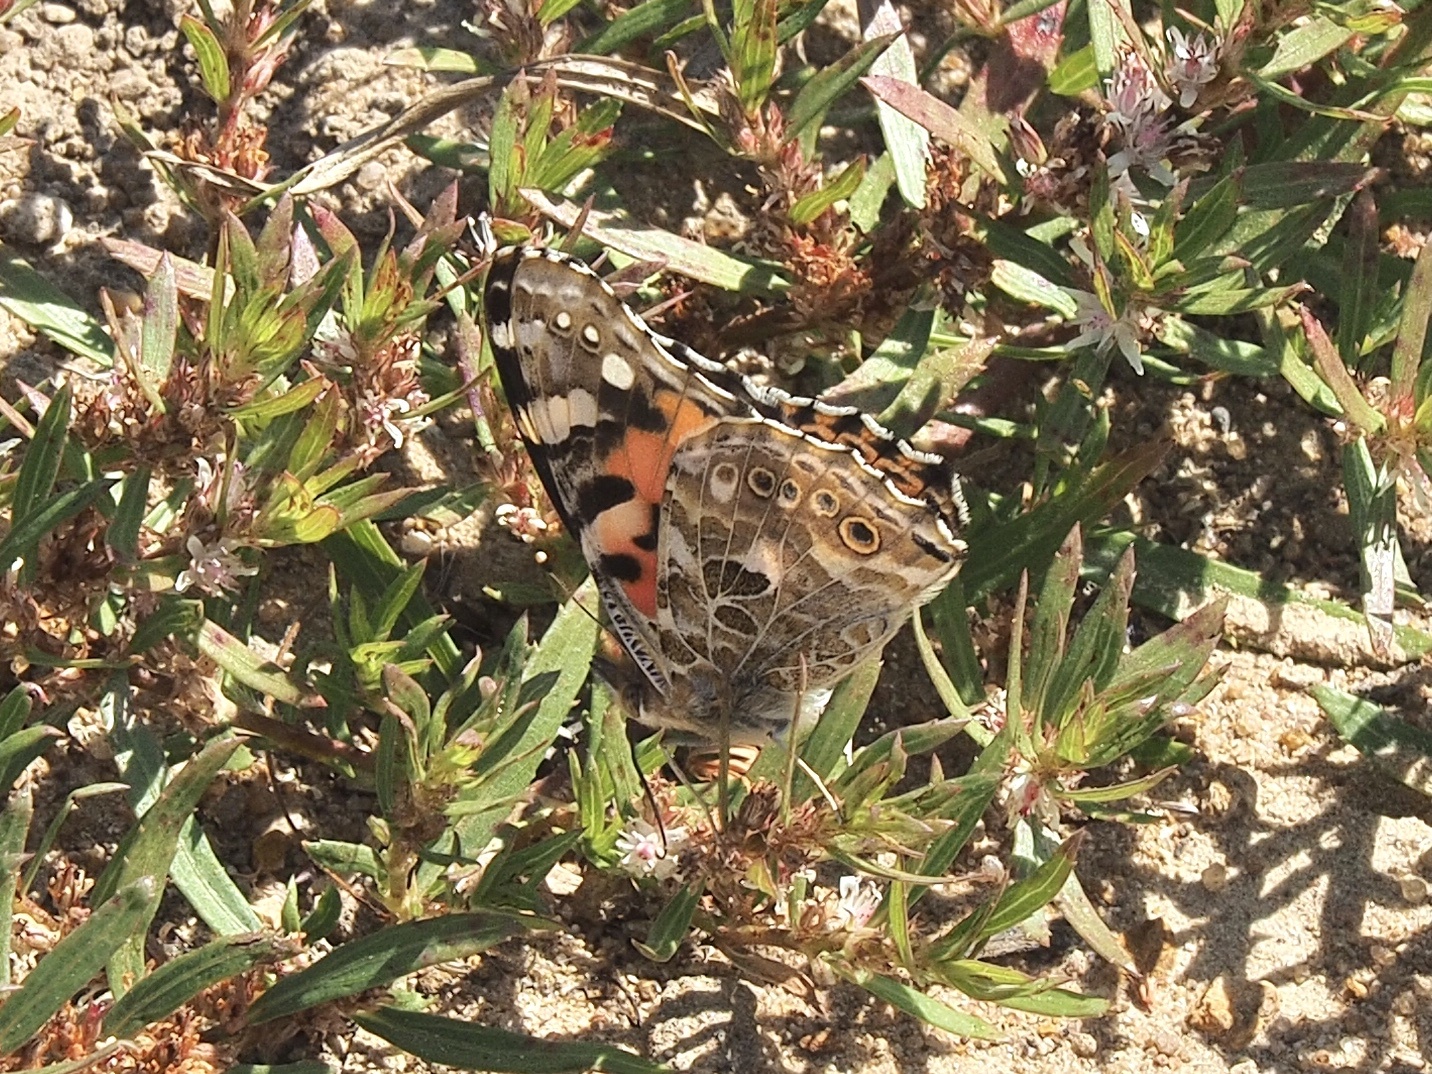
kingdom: Animalia
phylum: Arthropoda
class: Insecta
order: Lepidoptera
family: Nymphalidae
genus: Vanessa
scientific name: Vanessa cardui
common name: Painted lady
